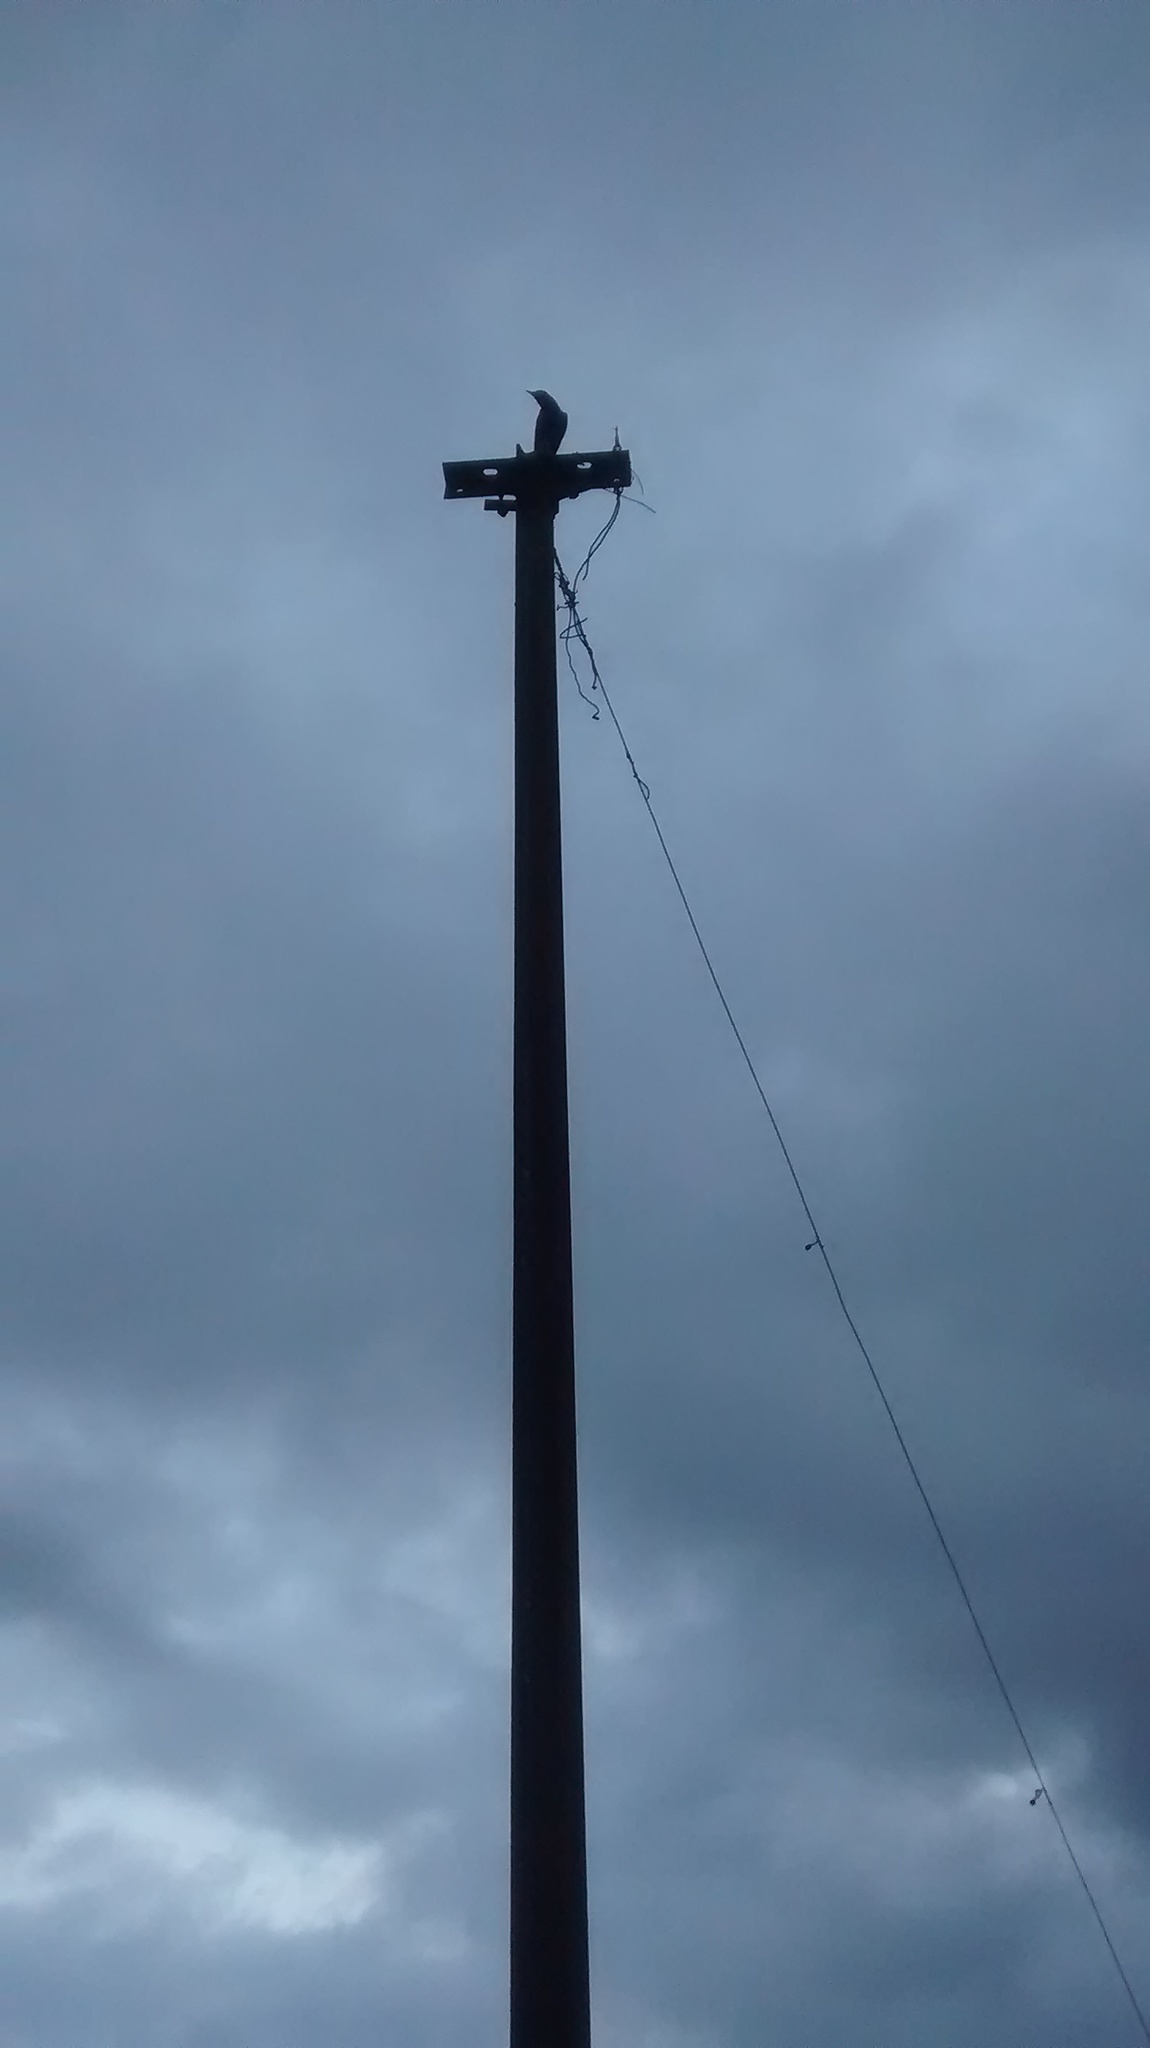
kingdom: Animalia
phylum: Chordata
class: Aves
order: Passeriformes
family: Muscicapidae
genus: Myophonus
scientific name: Myophonus horsfieldii
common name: Malabar whistling-thrush
